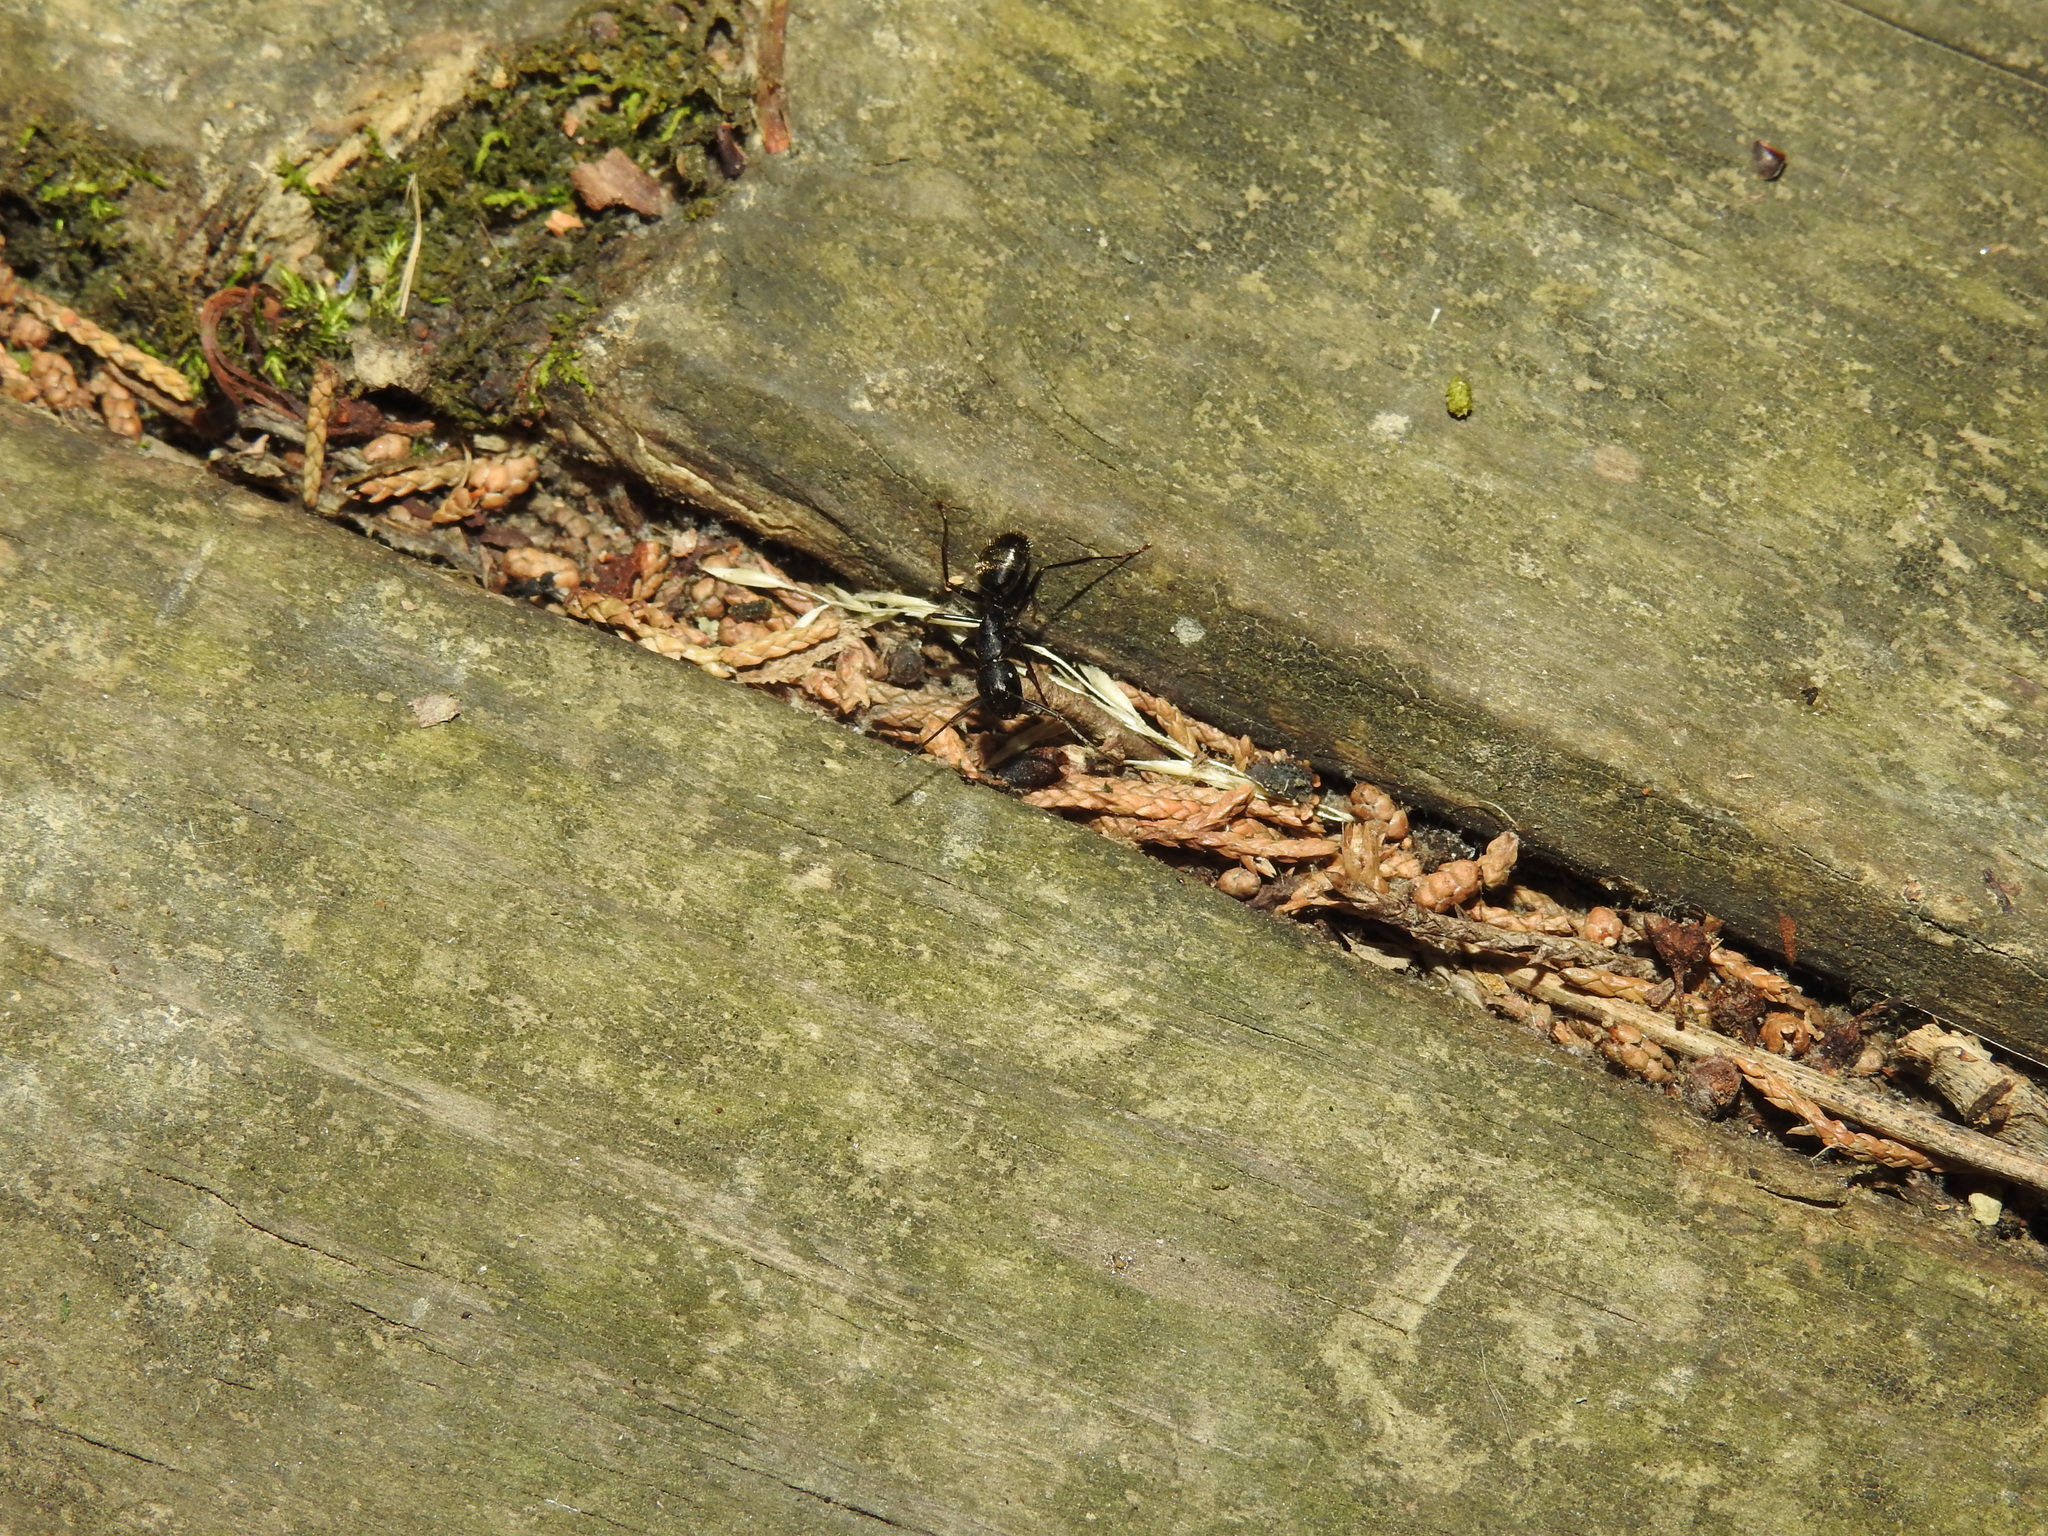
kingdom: Animalia
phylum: Arthropoda
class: Insecta
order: Hymenoptera
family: Formicidae
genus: Camponotus
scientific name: Camponotus pennsylvanicus
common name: Black carpenter ant
